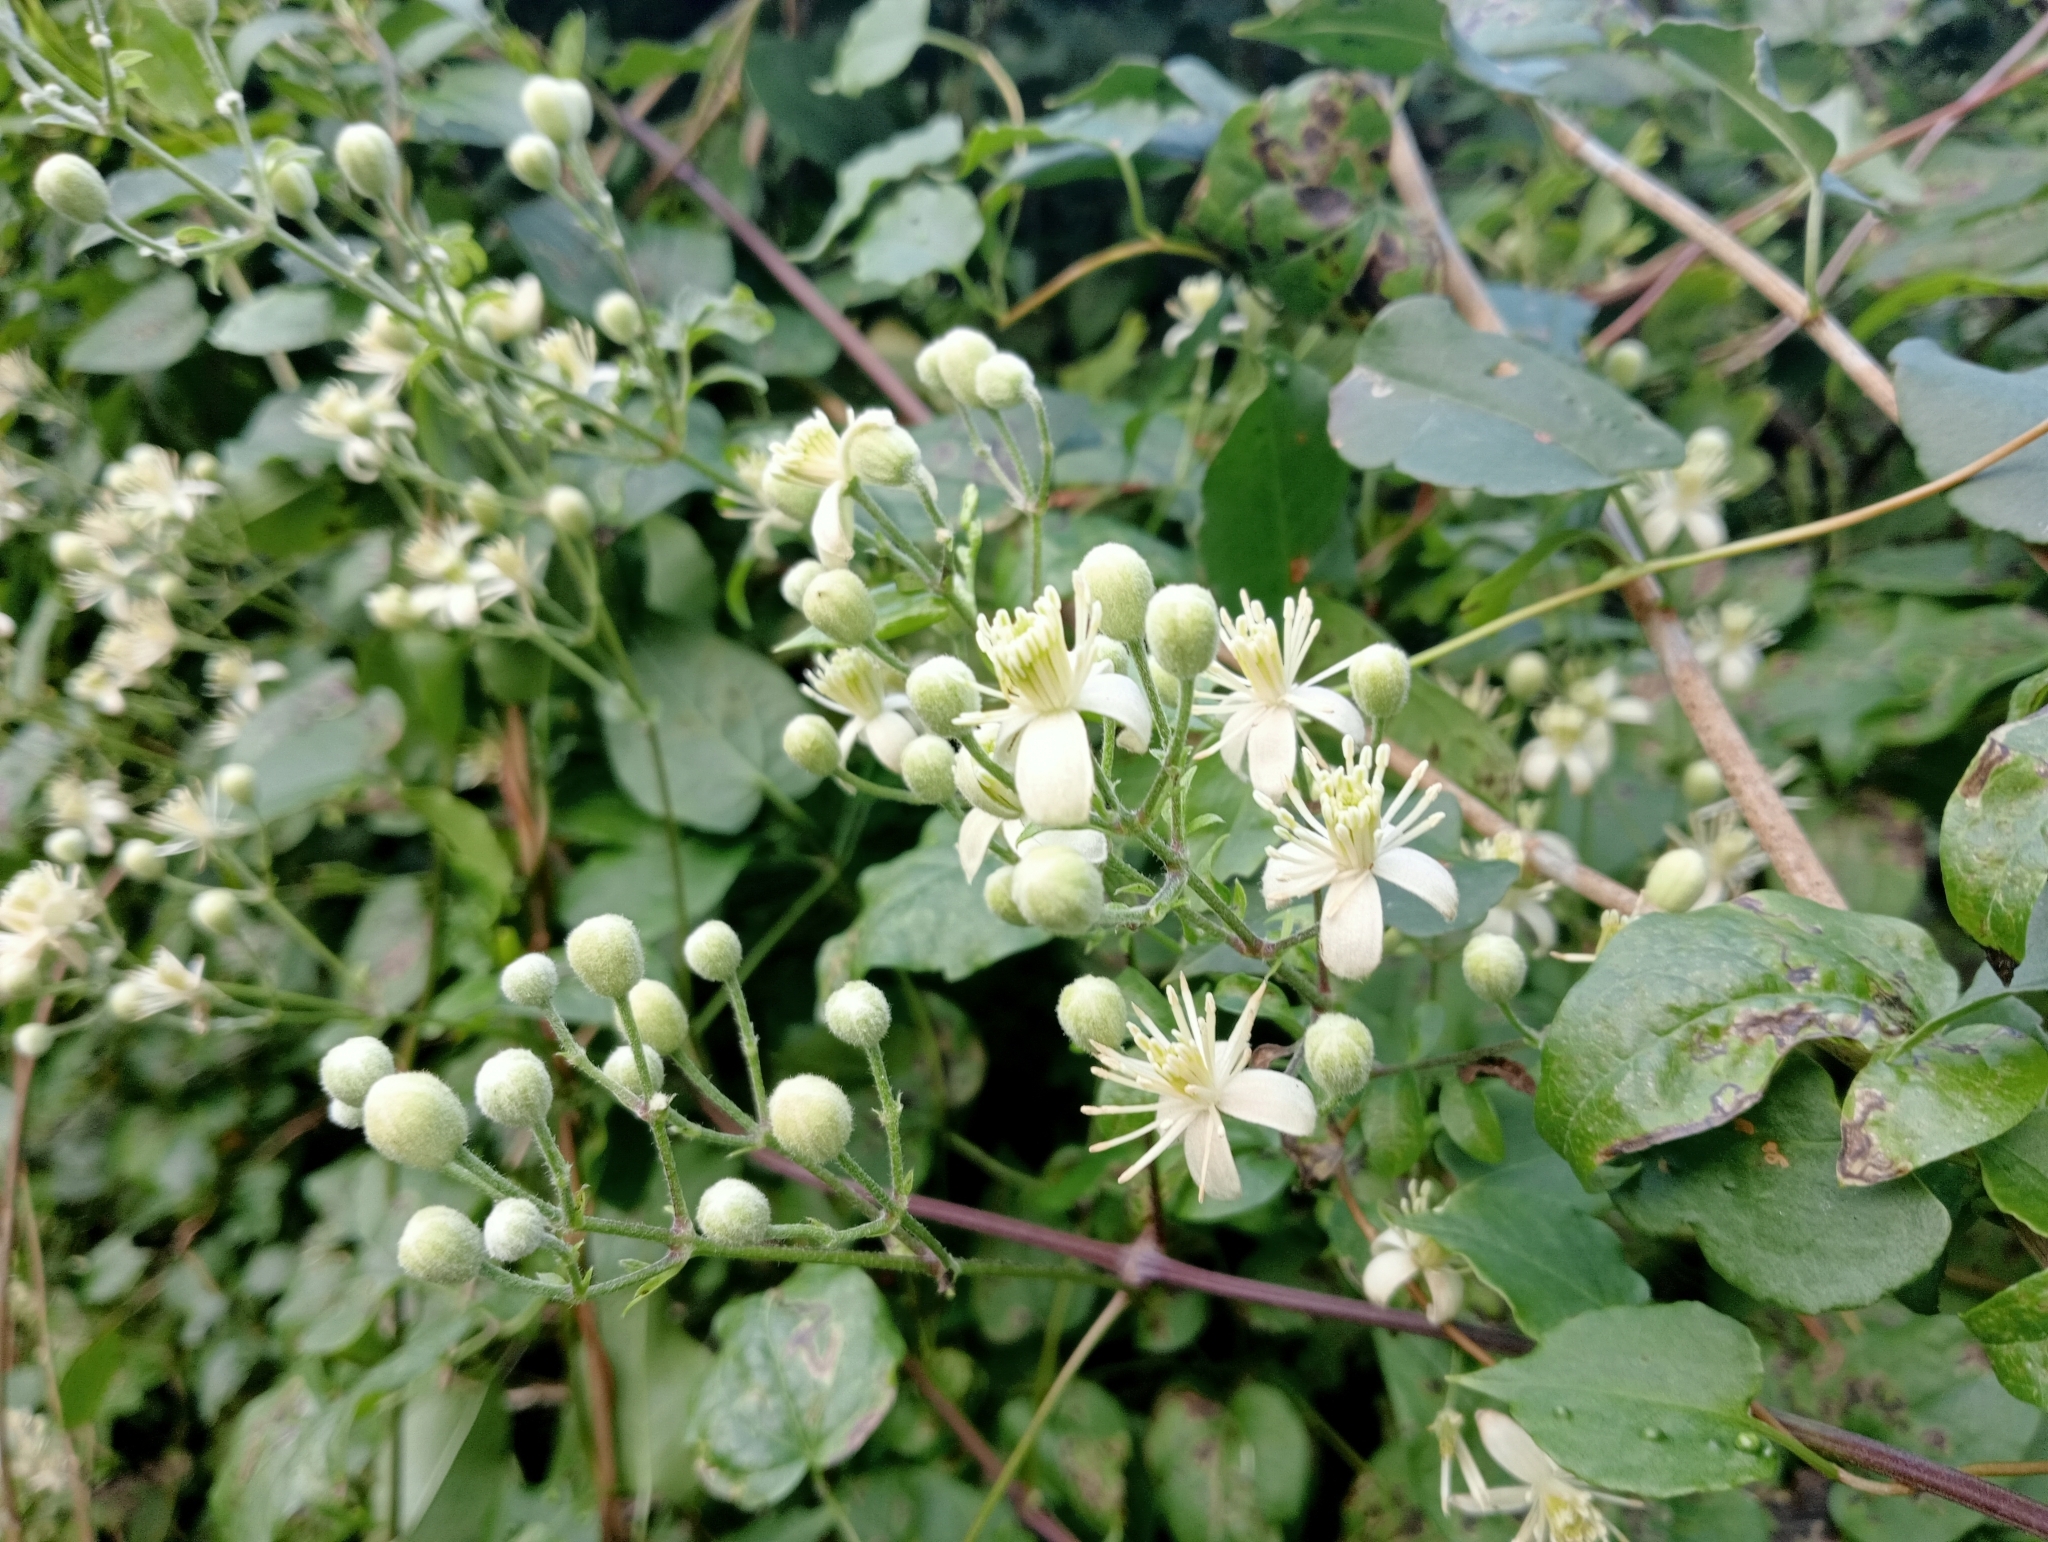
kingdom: Plantae
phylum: Tracheophyta
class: Magnoliopsida
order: Ranunculales
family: Ranunculaceae
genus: Clematis
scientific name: Clematis vitalba
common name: Evergreen clematis
